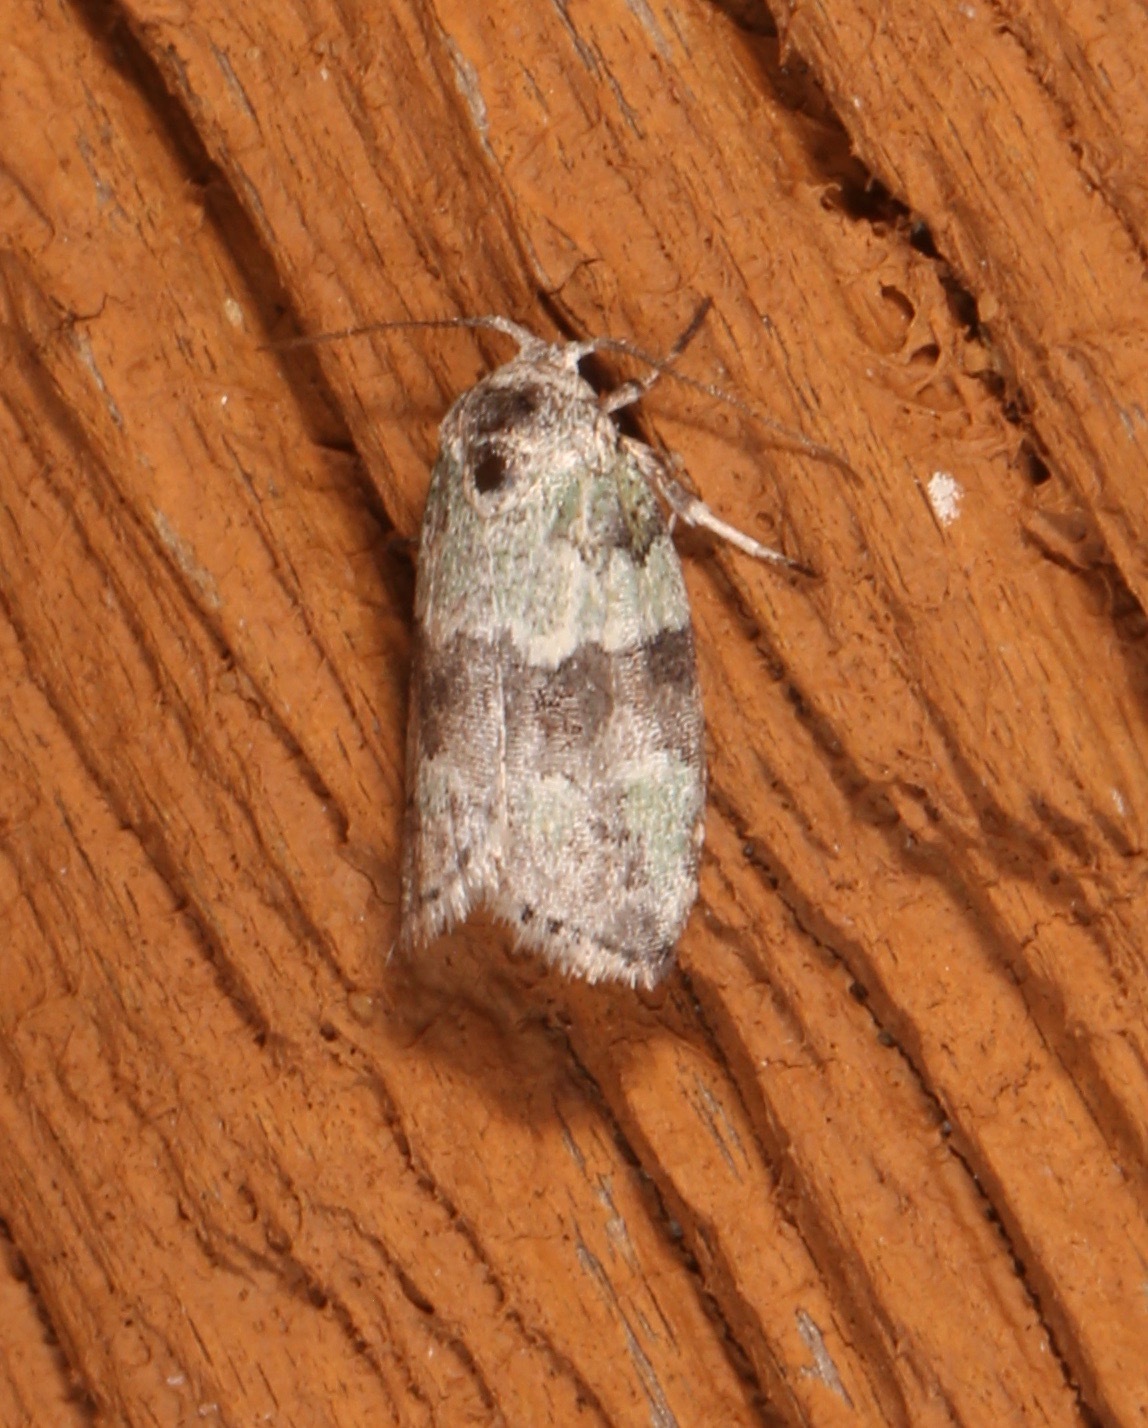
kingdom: Animalia
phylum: Arthropoda
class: Insecta
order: Lepidoptera
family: Nolidae
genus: Afrida
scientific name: Afrida ydatodes
